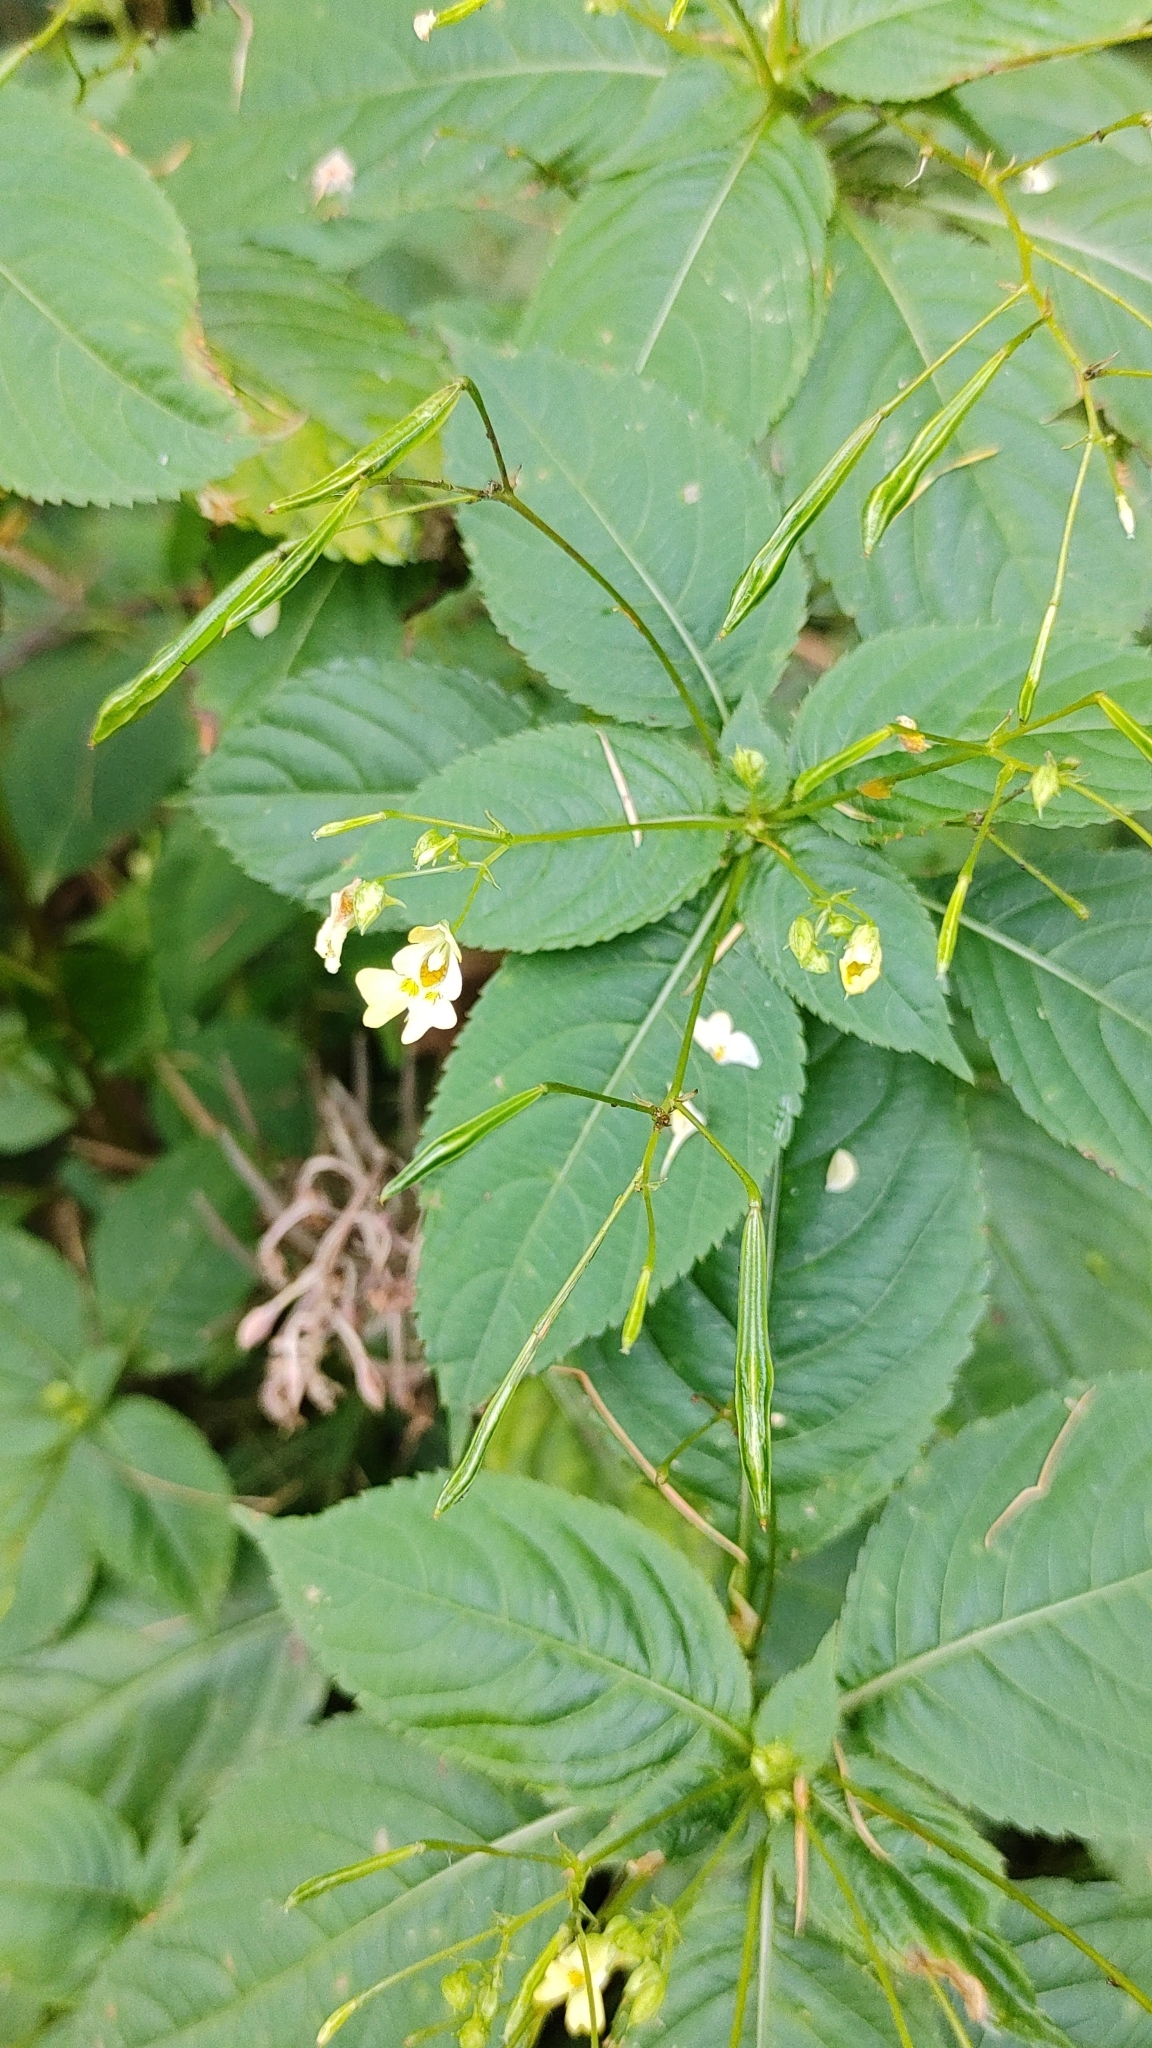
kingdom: Plantae
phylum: Tracheophyta
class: Magnoliopsida
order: Ericales
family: Balsaminaceae
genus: Impatiens
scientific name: Impatiens parviflora
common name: Small balsam
